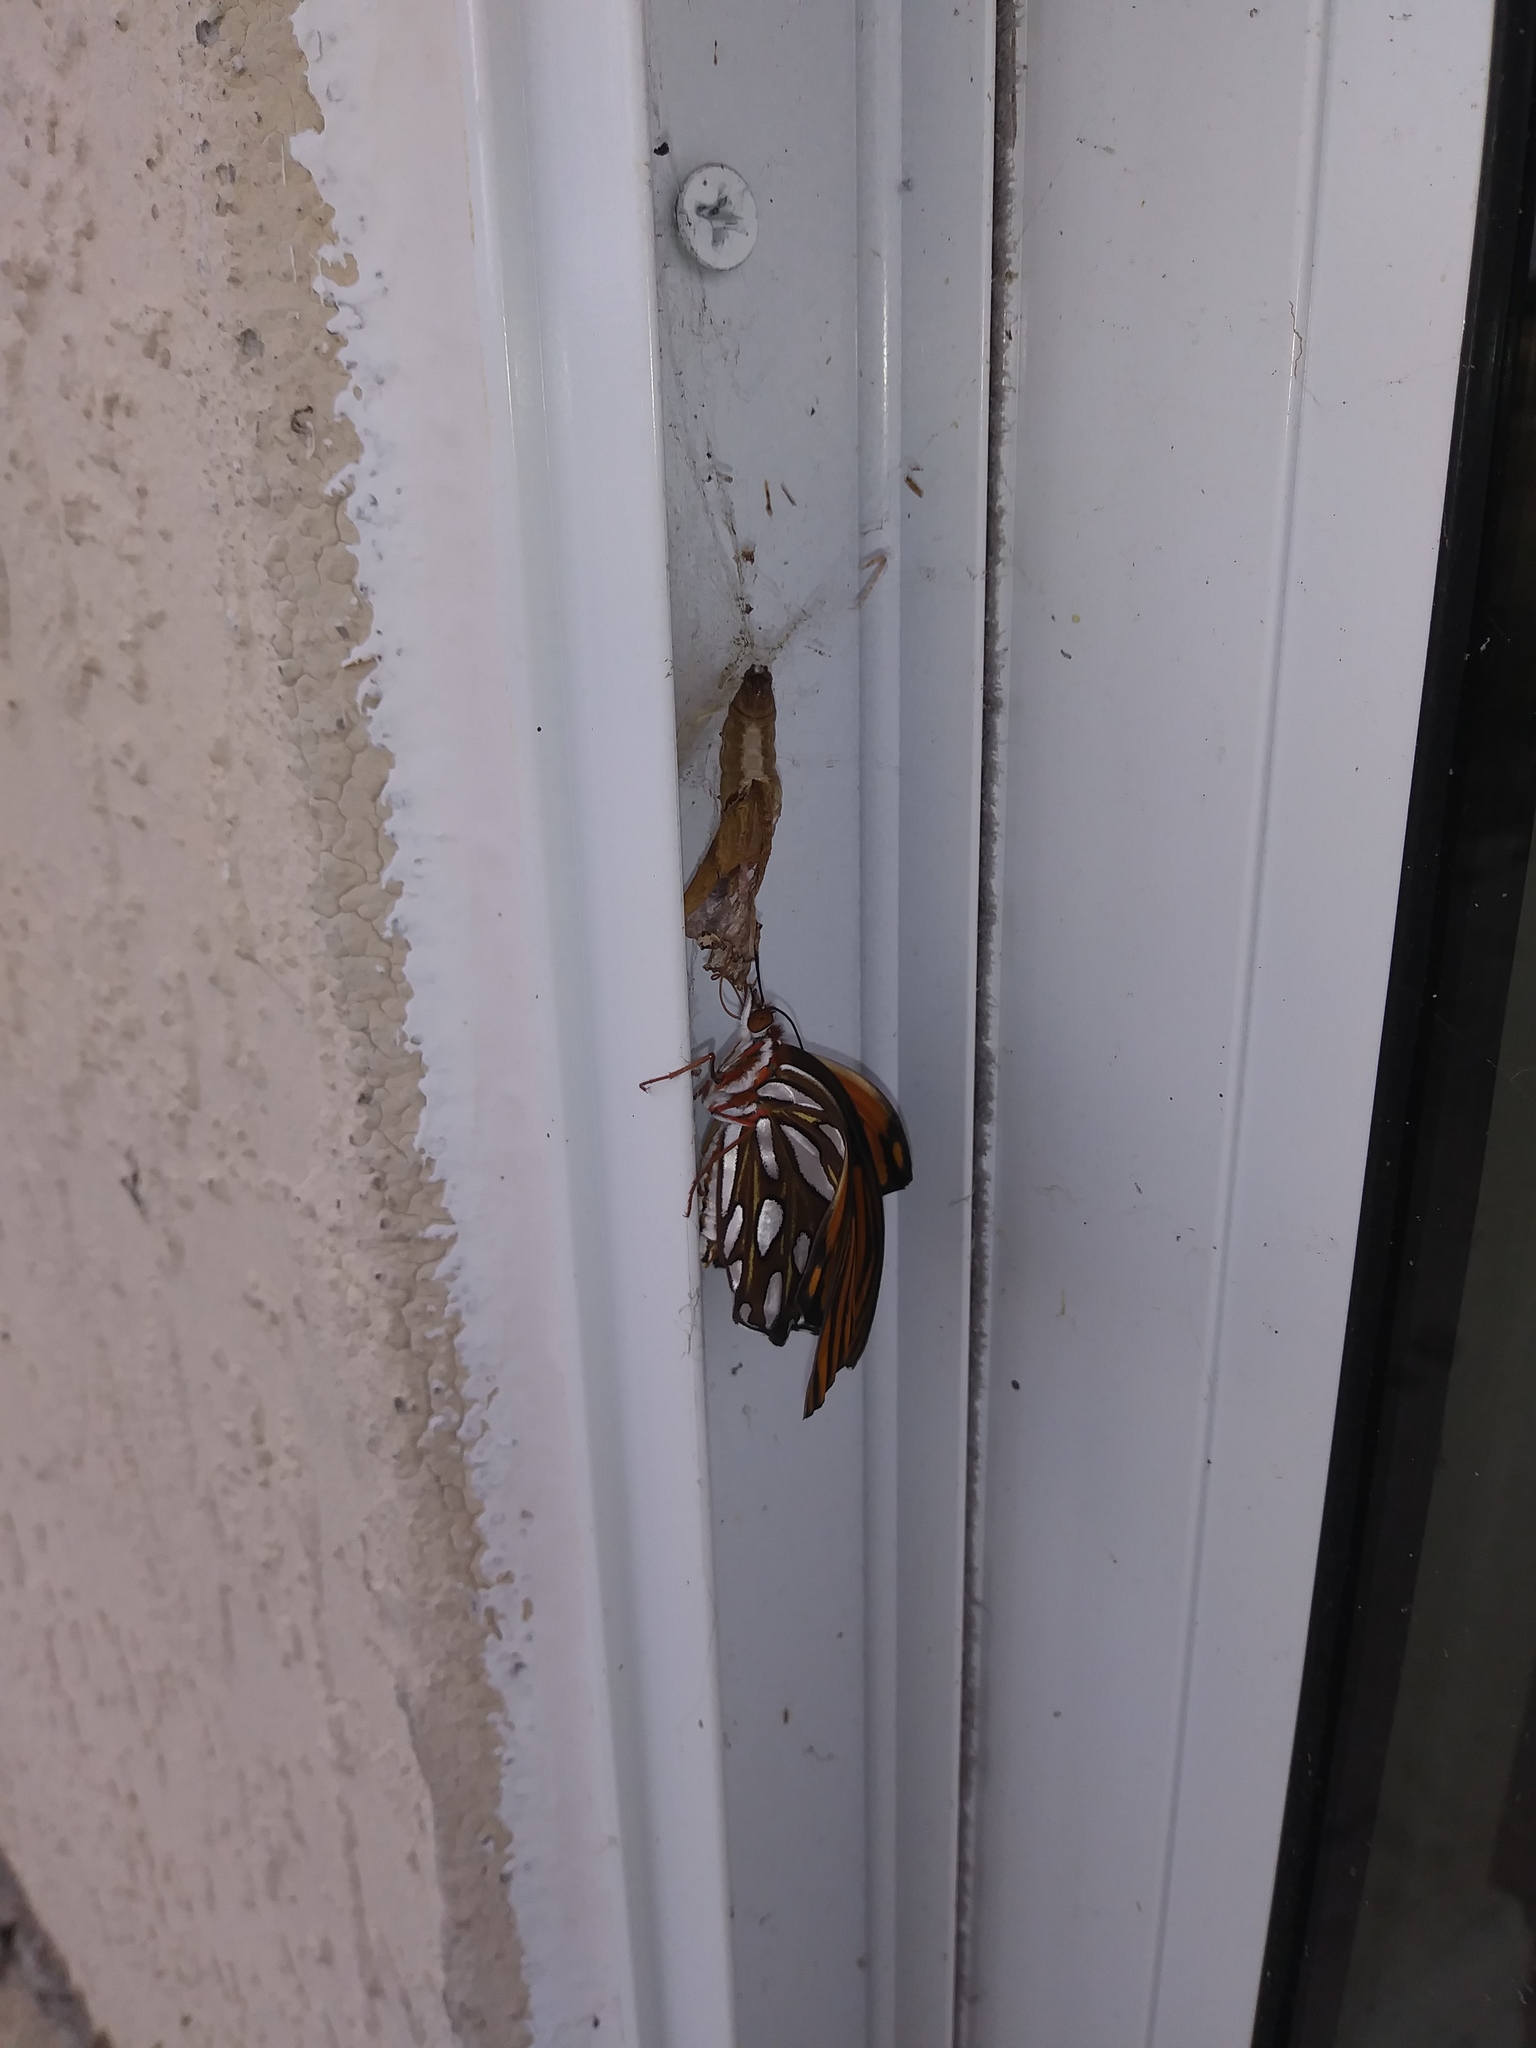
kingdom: Animalia
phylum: Arthropoda
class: Insecta
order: Lepidoptera
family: Nymphalidae
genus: Dione
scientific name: Dione vanillae
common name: Gulf fritillary
